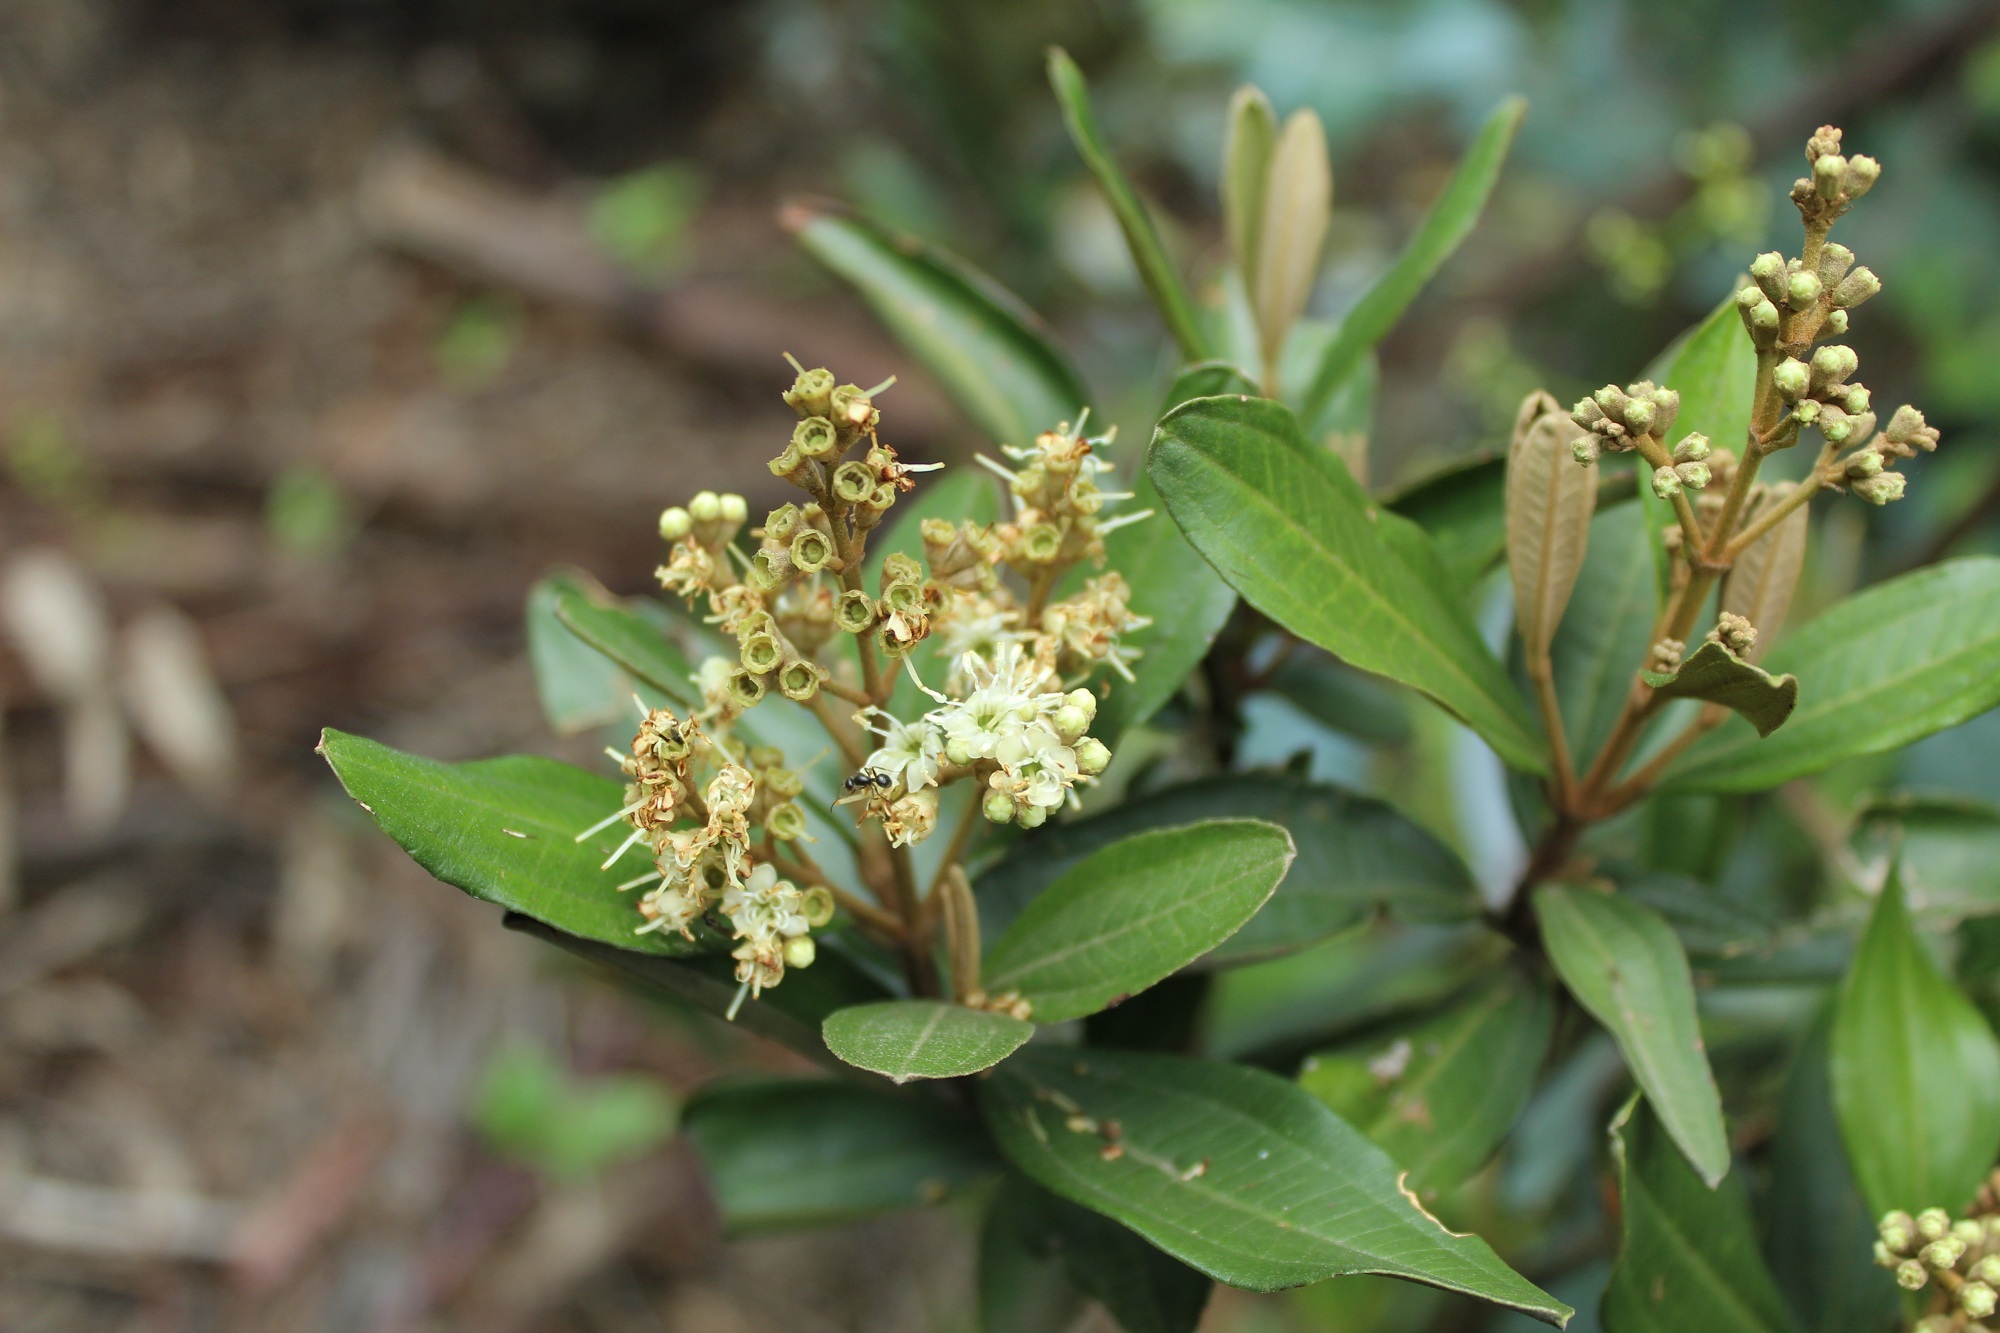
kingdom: Plantae
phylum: Tracheophyta
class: Magnoliopsida
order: Myrtales
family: Melastomataceae
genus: Miconia
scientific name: Miconia squamulosa
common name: Squamulose maya
